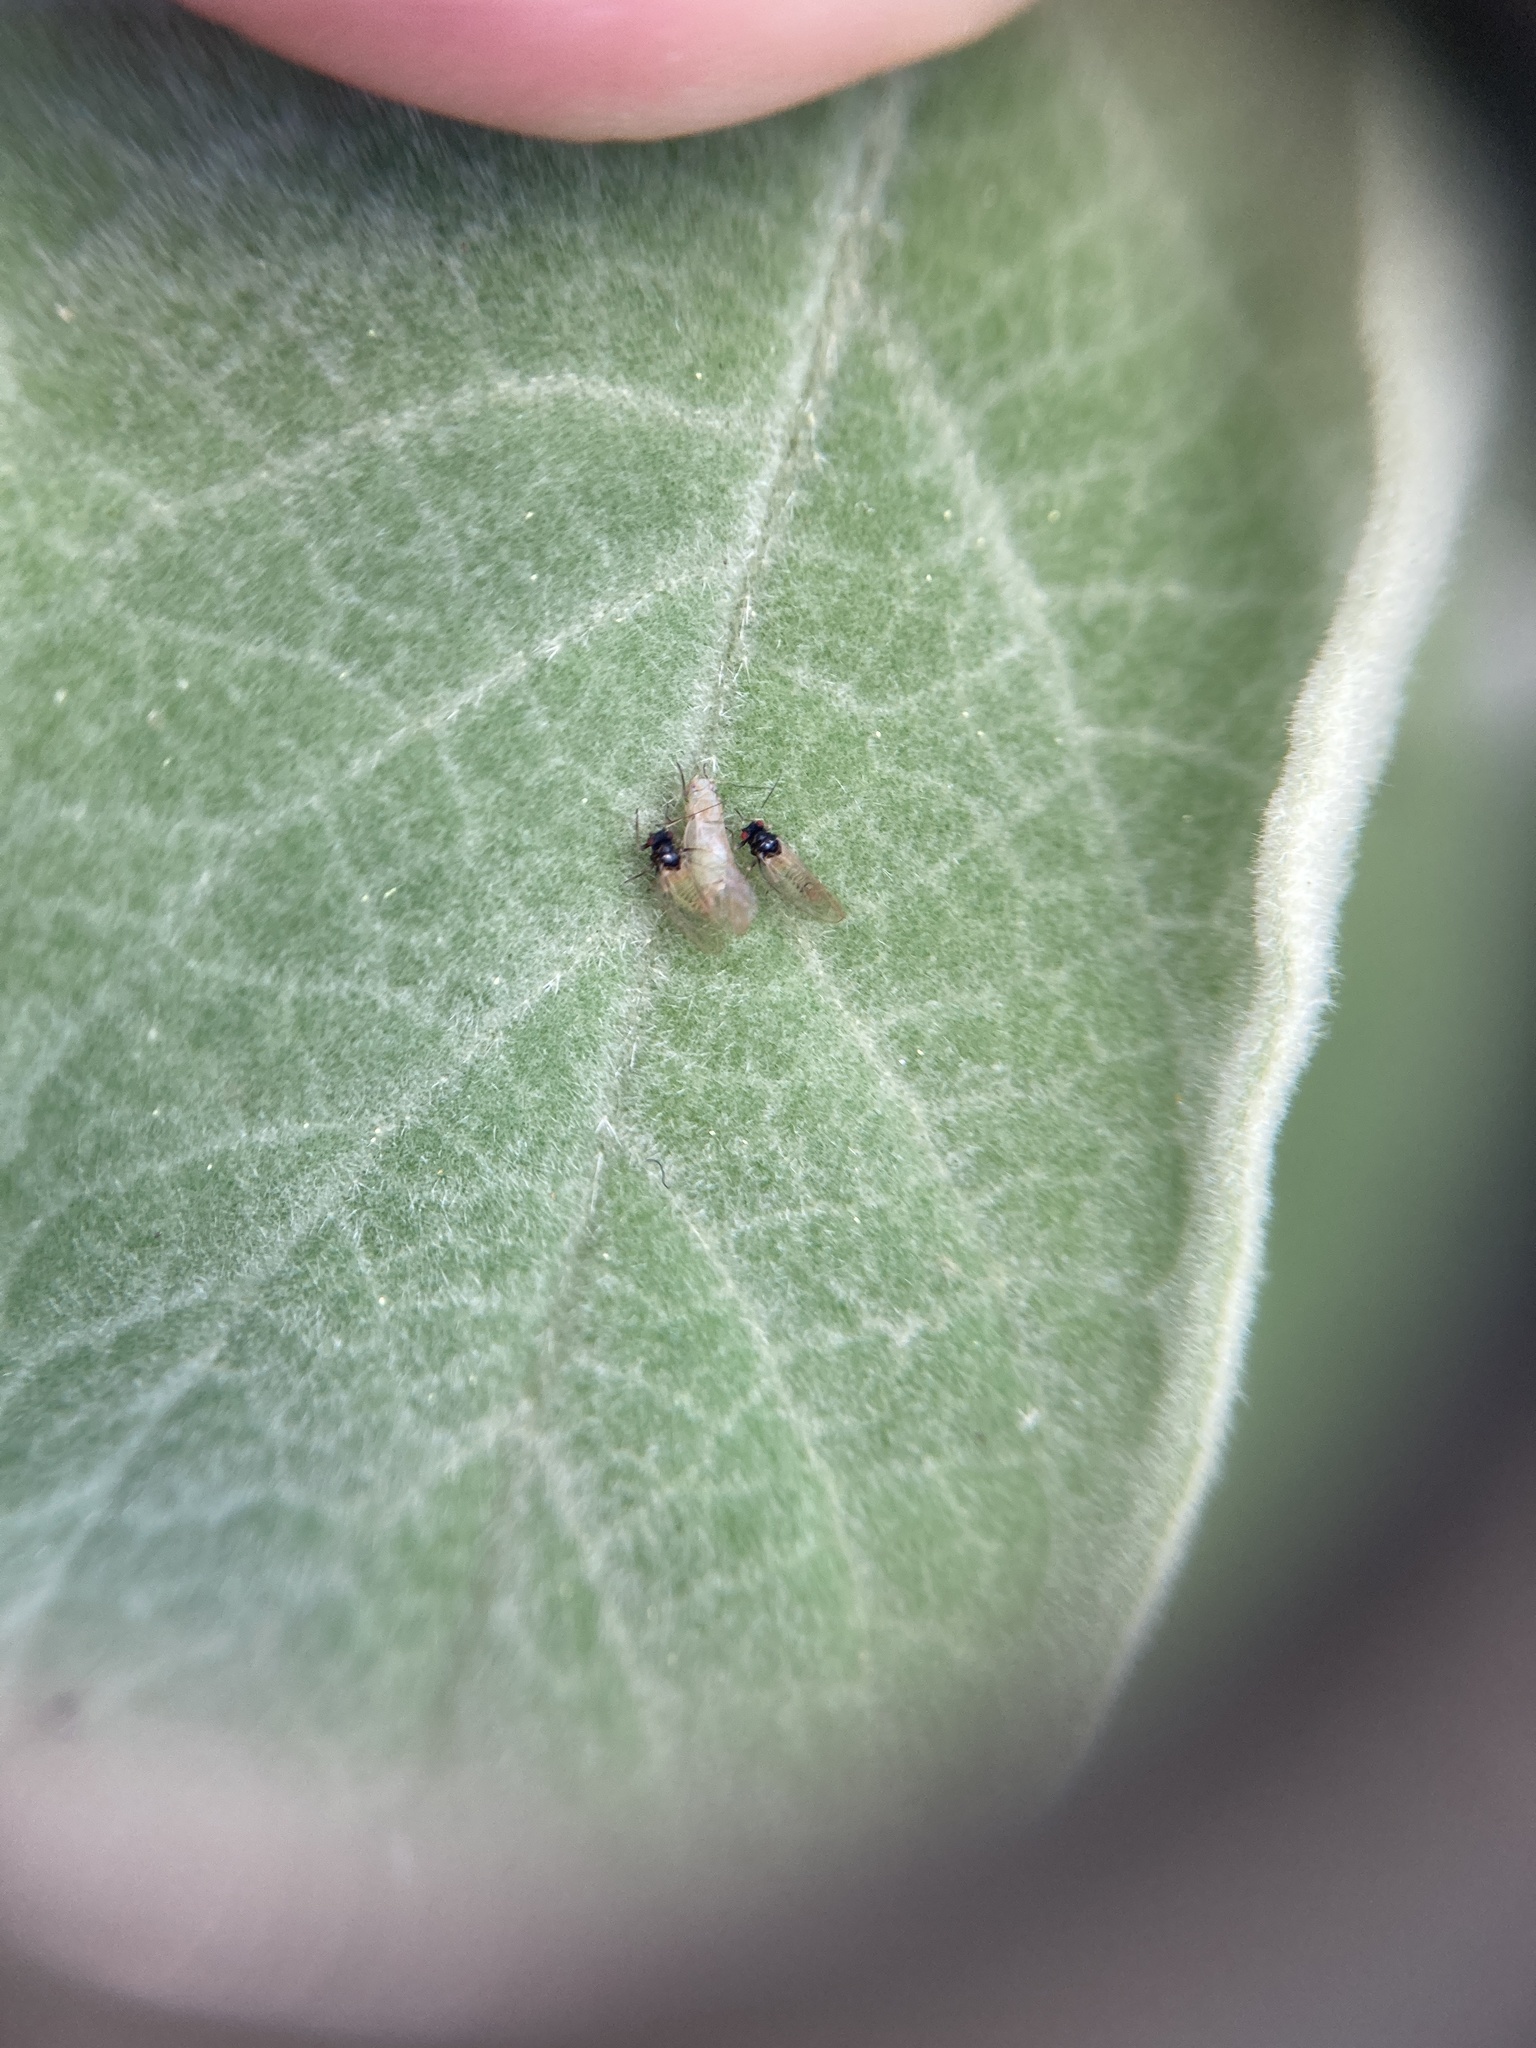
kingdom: Animalia
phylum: Arthropoda
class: Insecta
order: Hemiptera
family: Psyllidae
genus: Acizzia
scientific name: Acizzia solanicola
